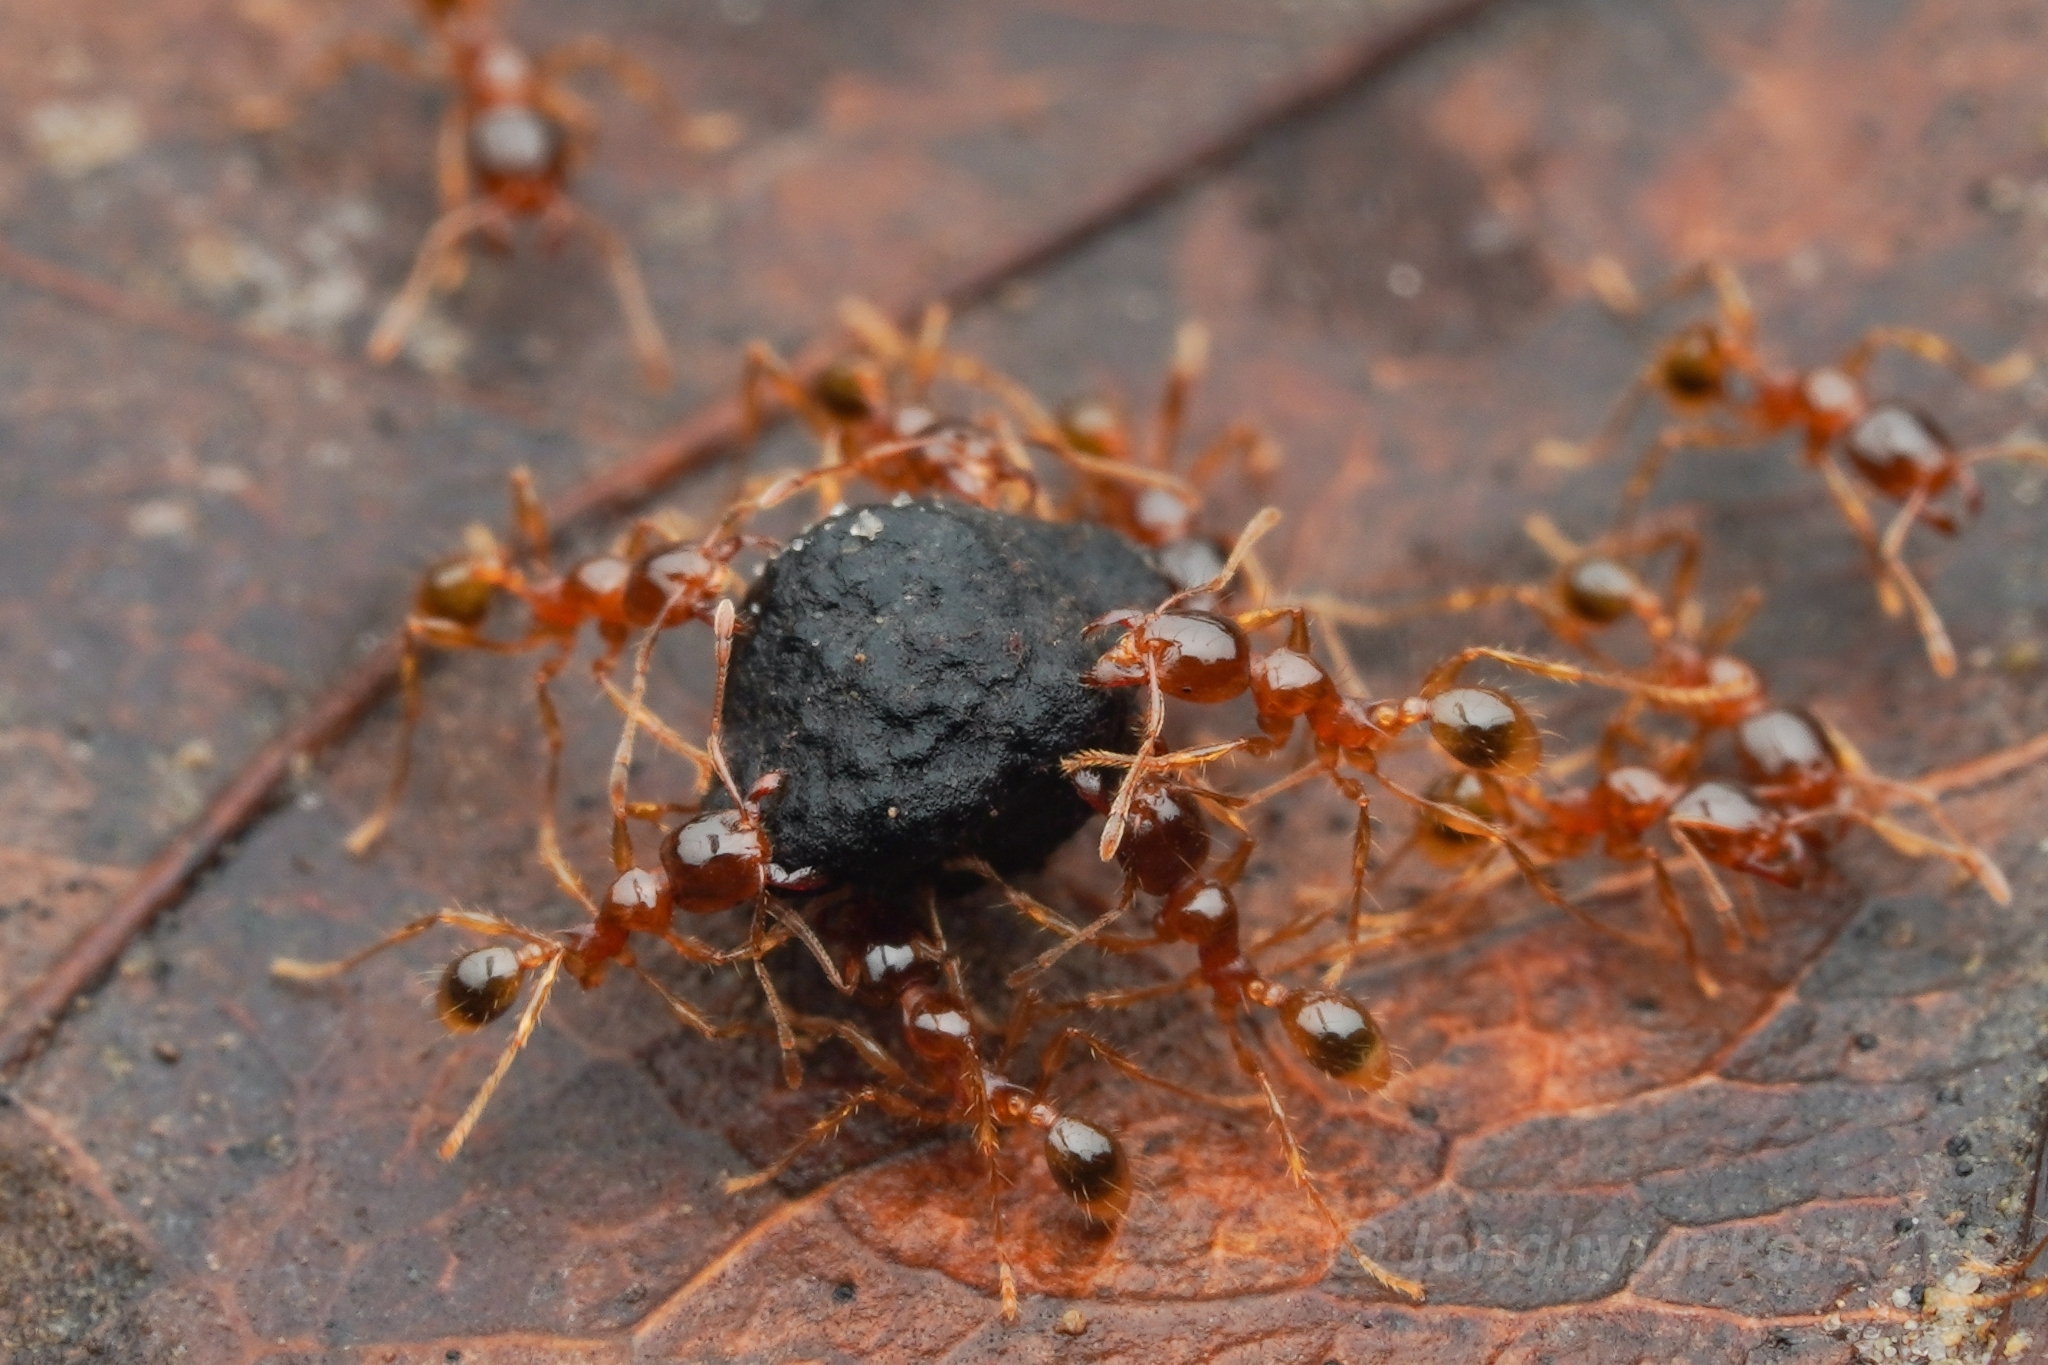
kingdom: Animalia
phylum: Arthropoda
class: Insecta
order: Hymenoptera
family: Formicidae
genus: Carebara
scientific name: Carebara affinis
